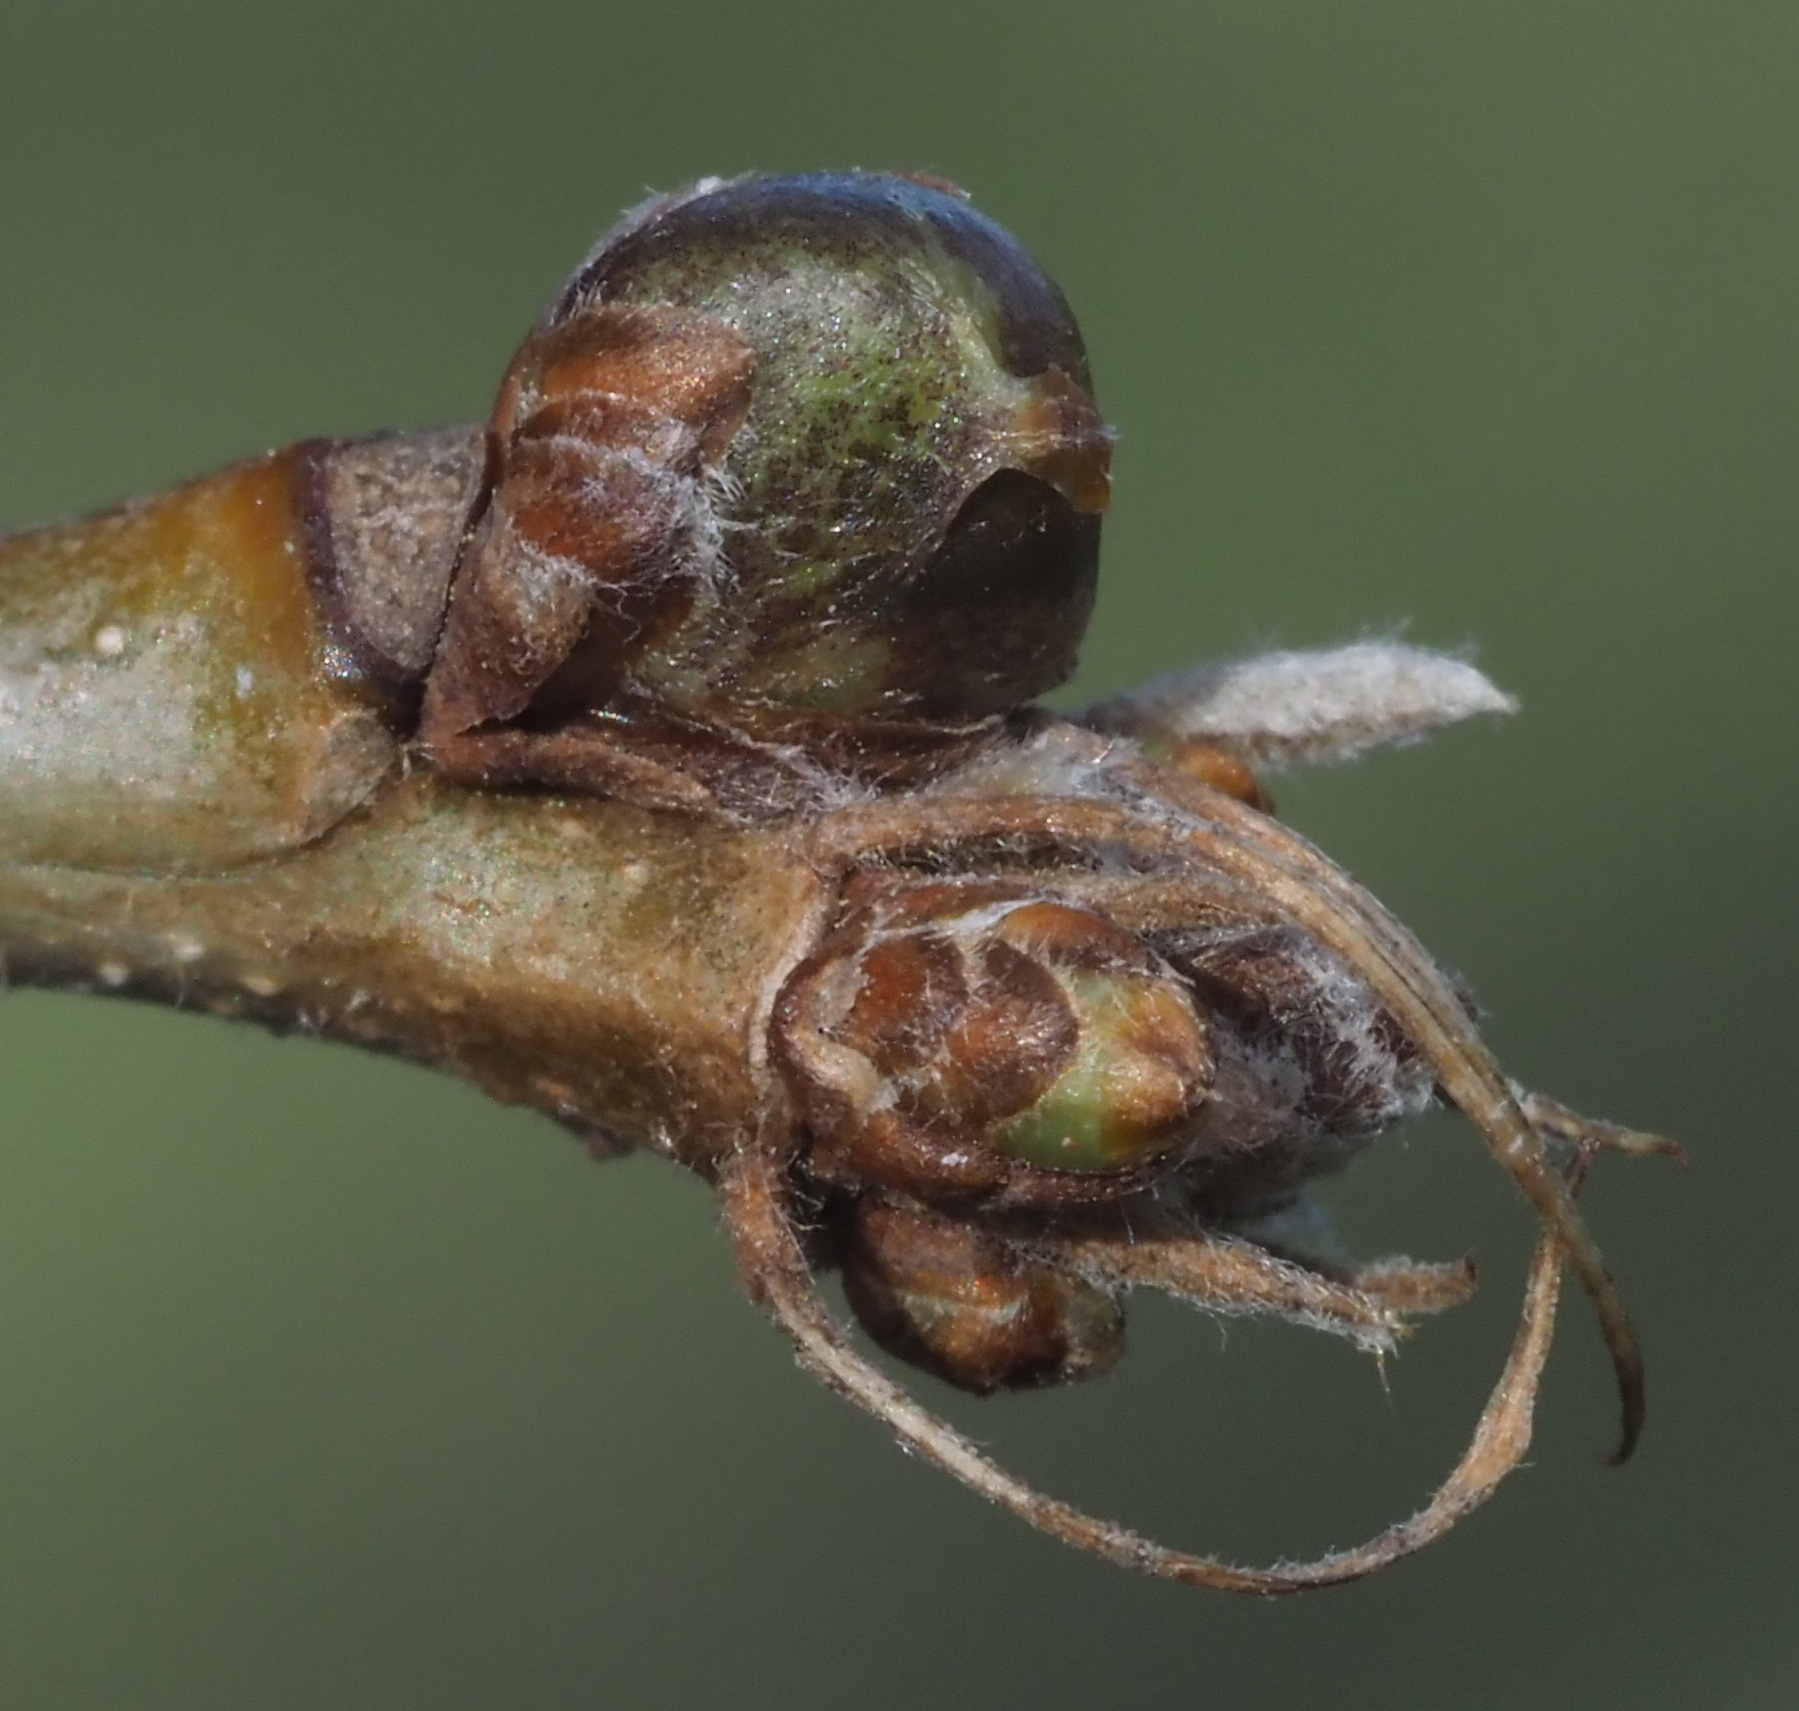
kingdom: Animalia
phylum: Arthropoda
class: Insecta
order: Hymenoptera
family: Cynipidae
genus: Neuroterus
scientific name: Neuroterus
